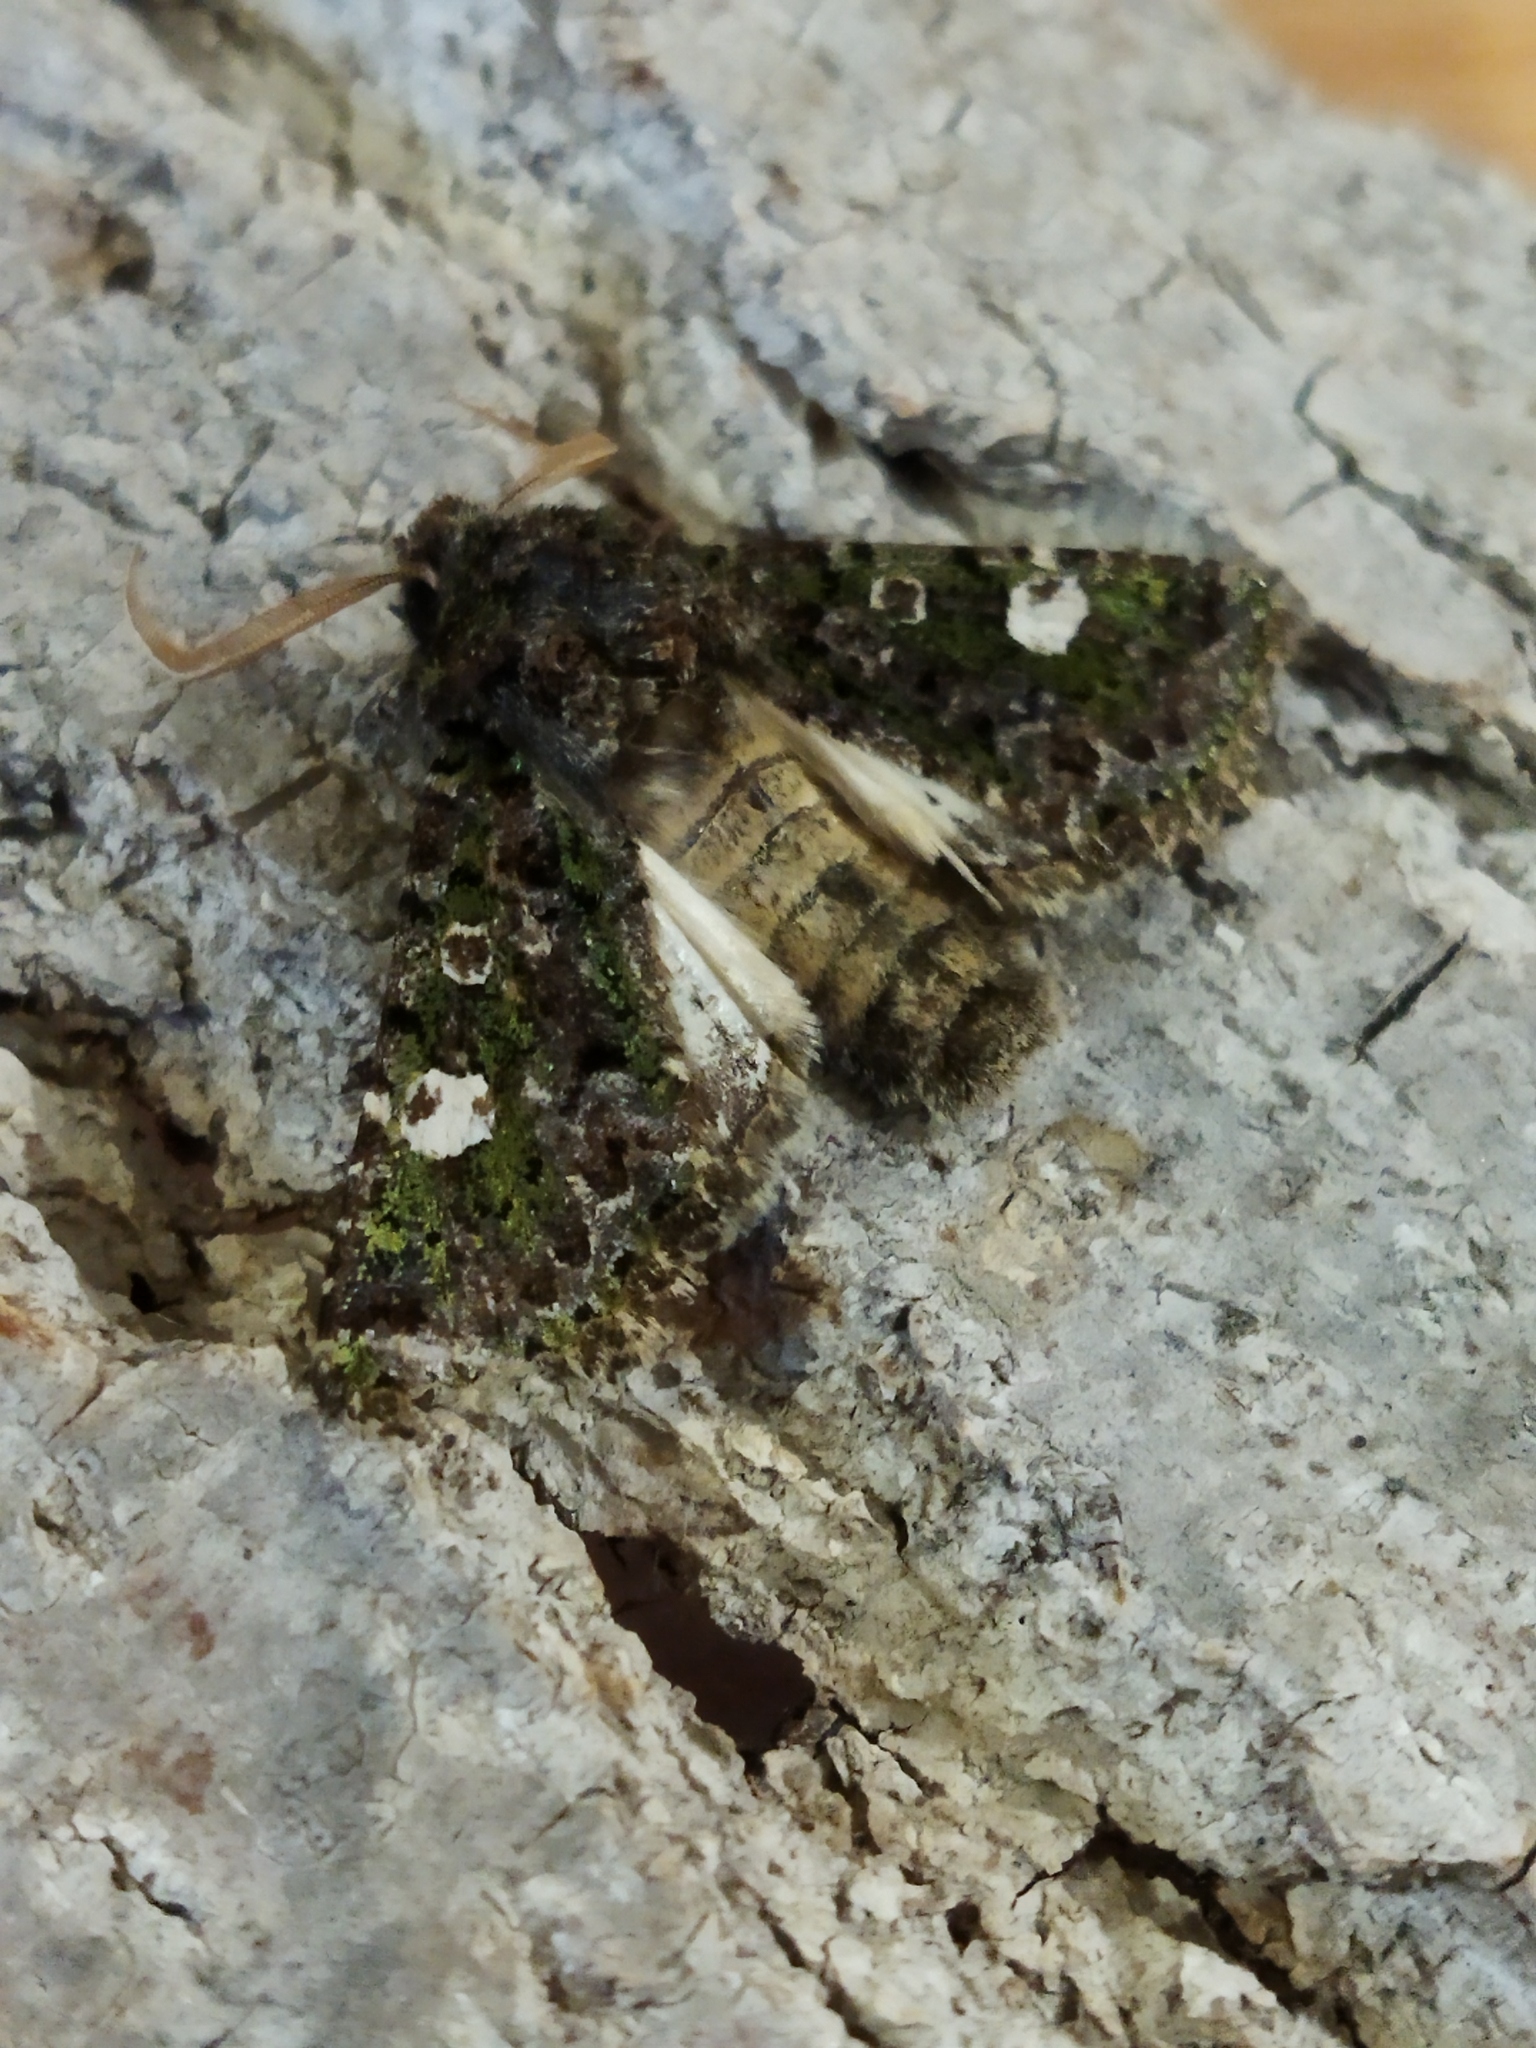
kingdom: Animalia
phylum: Arthropoda
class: Insecta
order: Lepidoptera
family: Noctuidae
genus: Valeria
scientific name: Valeria oleagina
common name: Green-brindled dot
